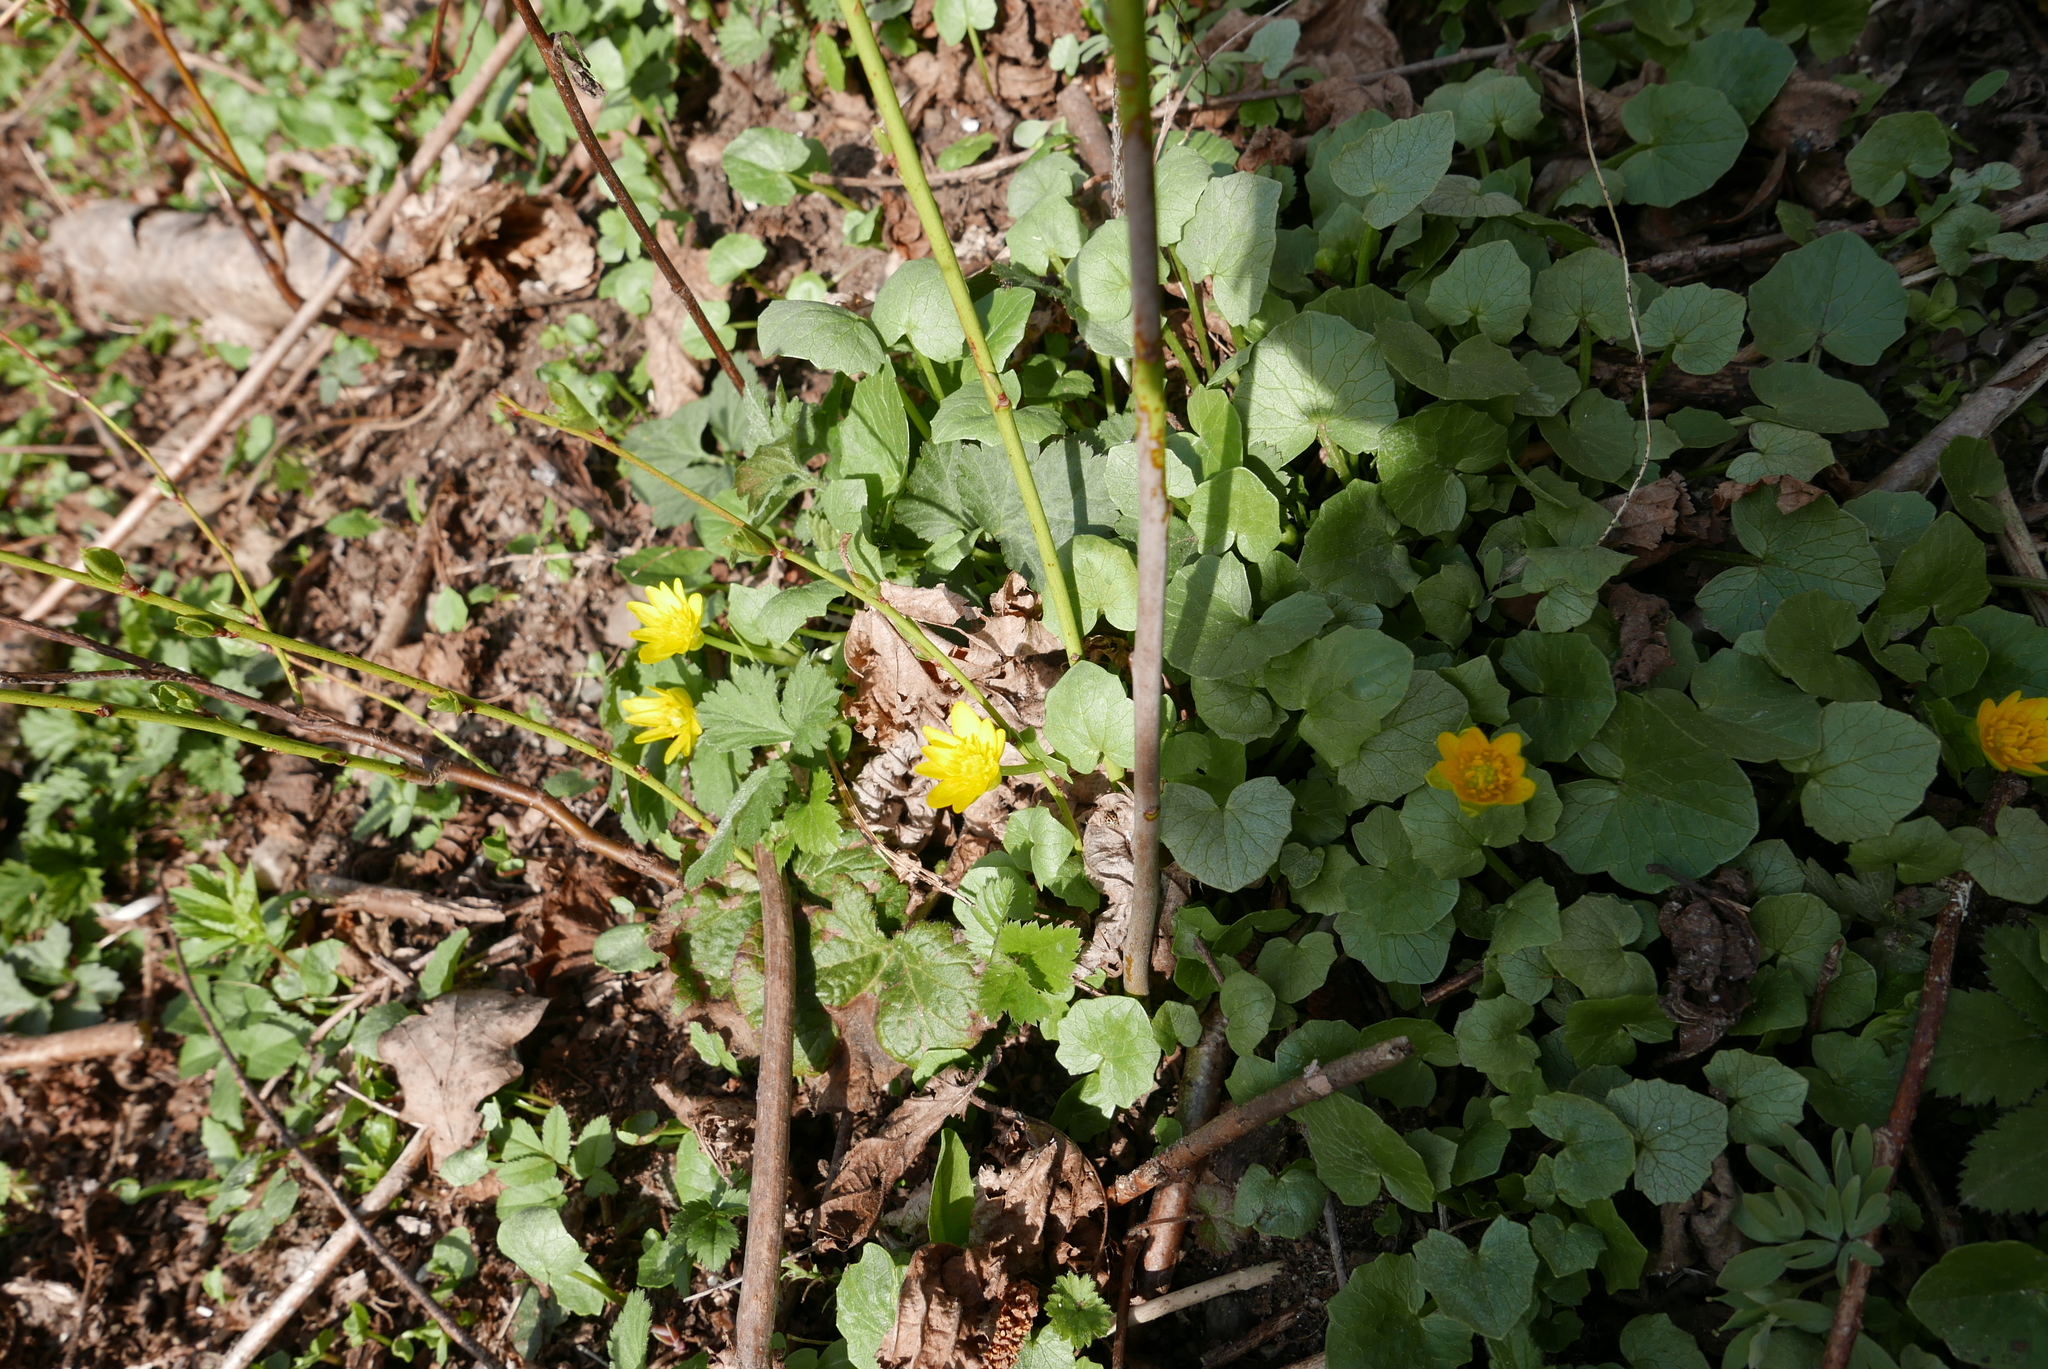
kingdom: Plantae
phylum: Tracheophyta
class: Magnoliopsida
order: Ranunculales
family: Ranunculaceae
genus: Ficaria
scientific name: Ficaria verna
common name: Lesser celandine
